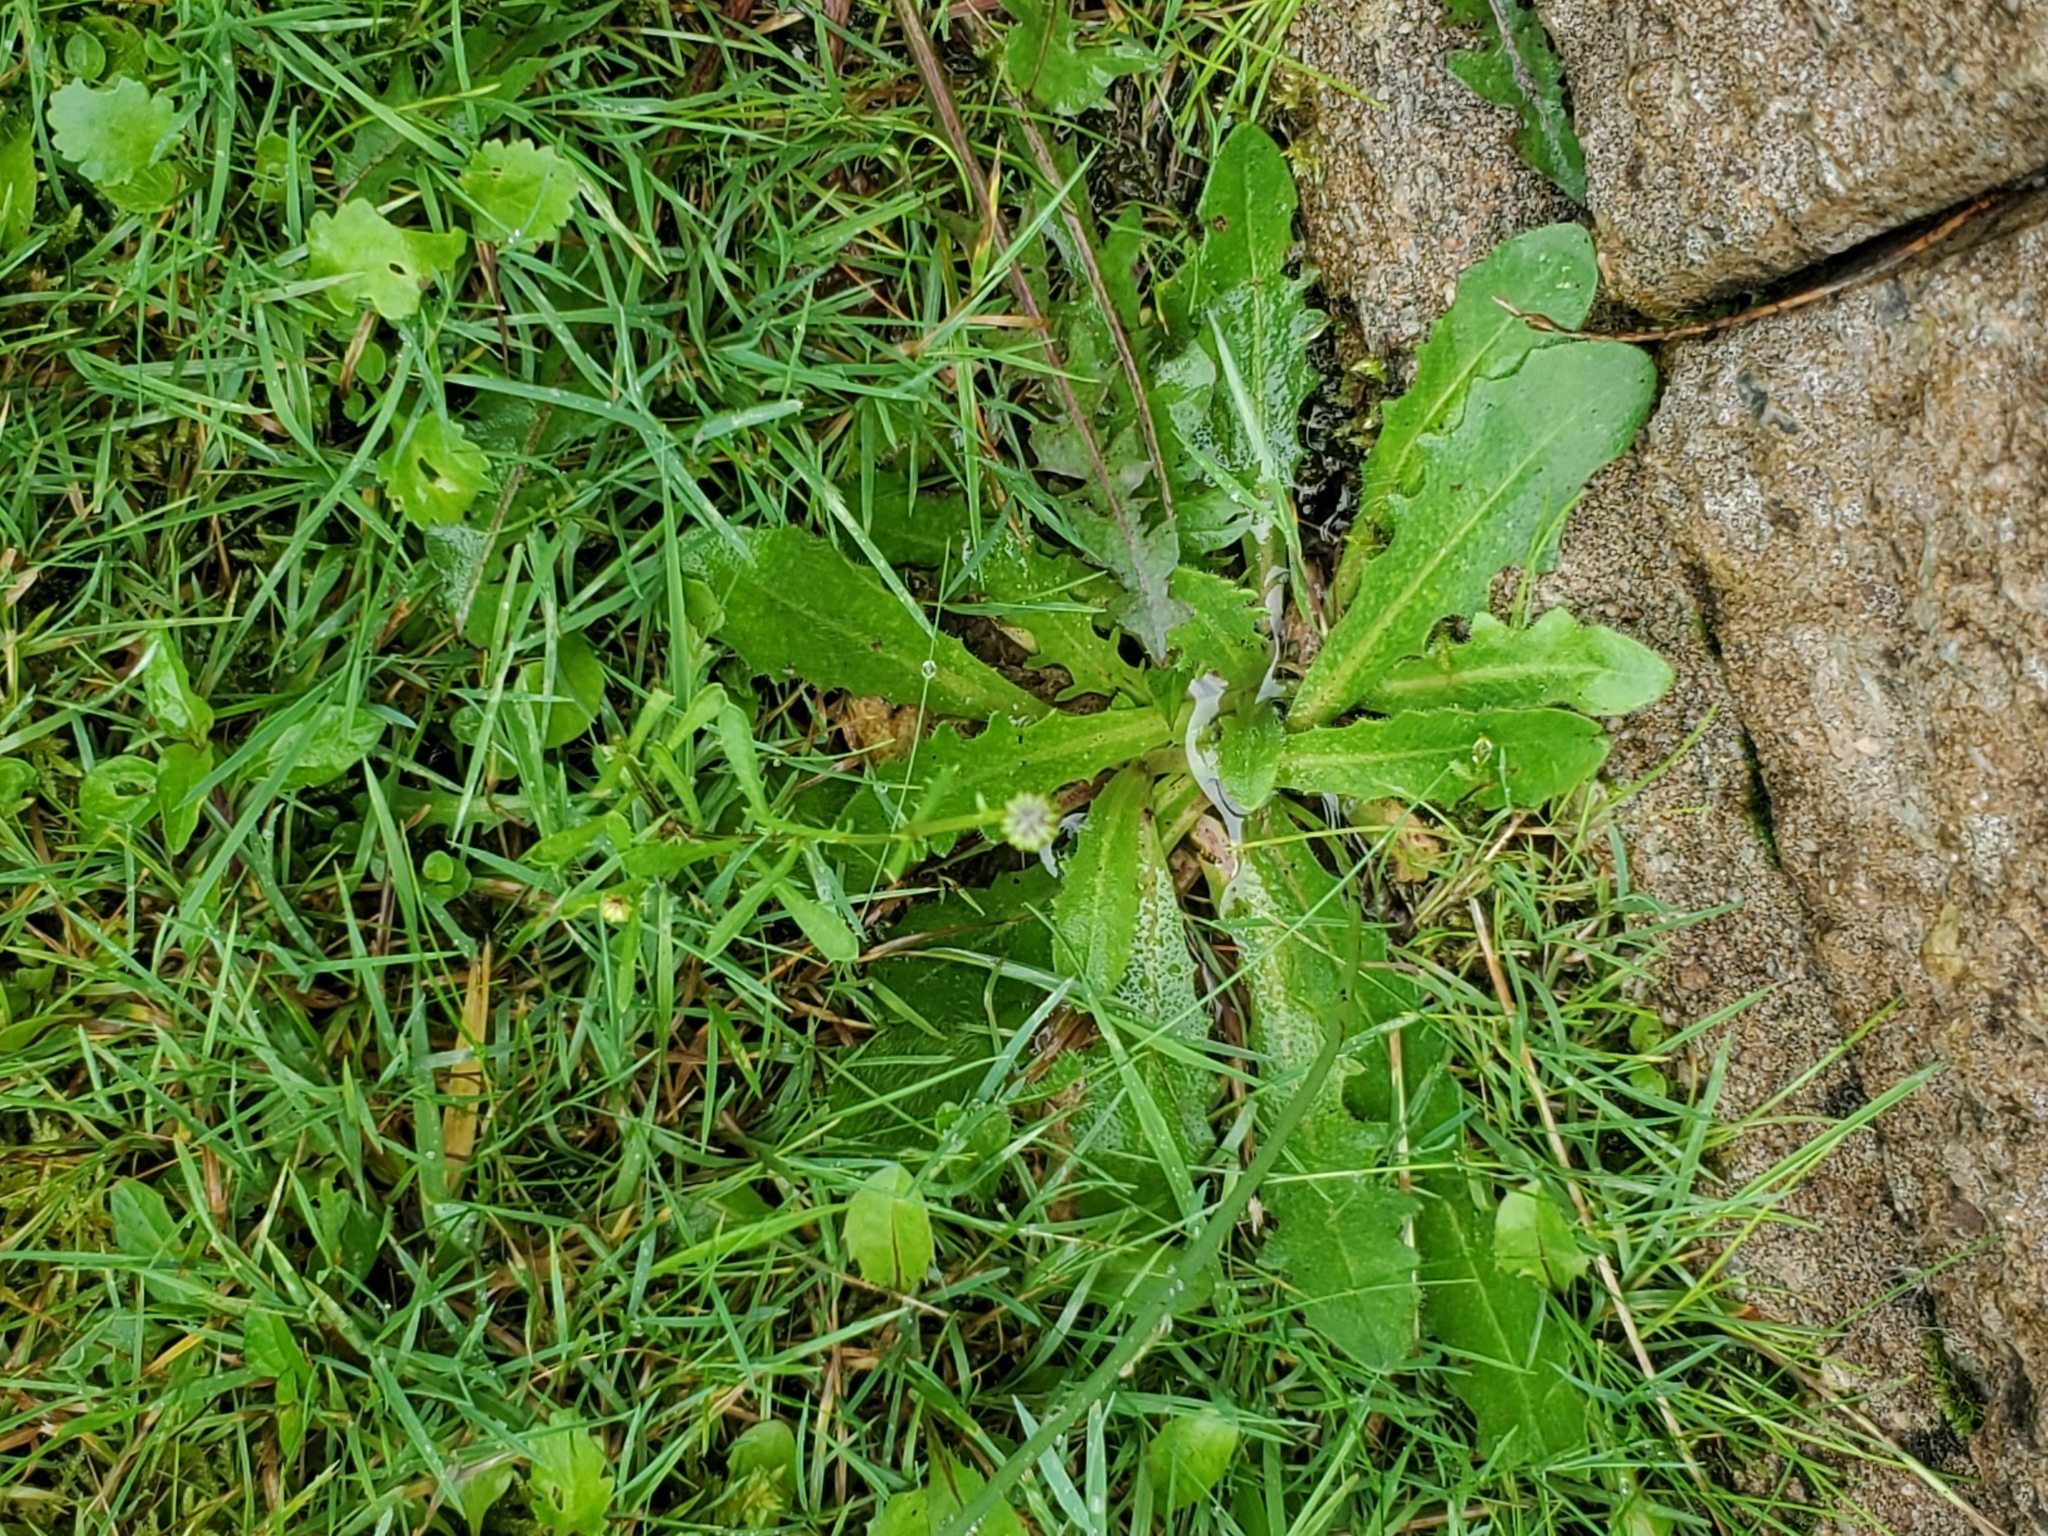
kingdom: Plantae
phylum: Tracheophyta
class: Magnoliopsida
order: Asterales
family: Asteraceae
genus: Hypochaeris
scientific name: Hypochaeris radicata
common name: Flatweed
